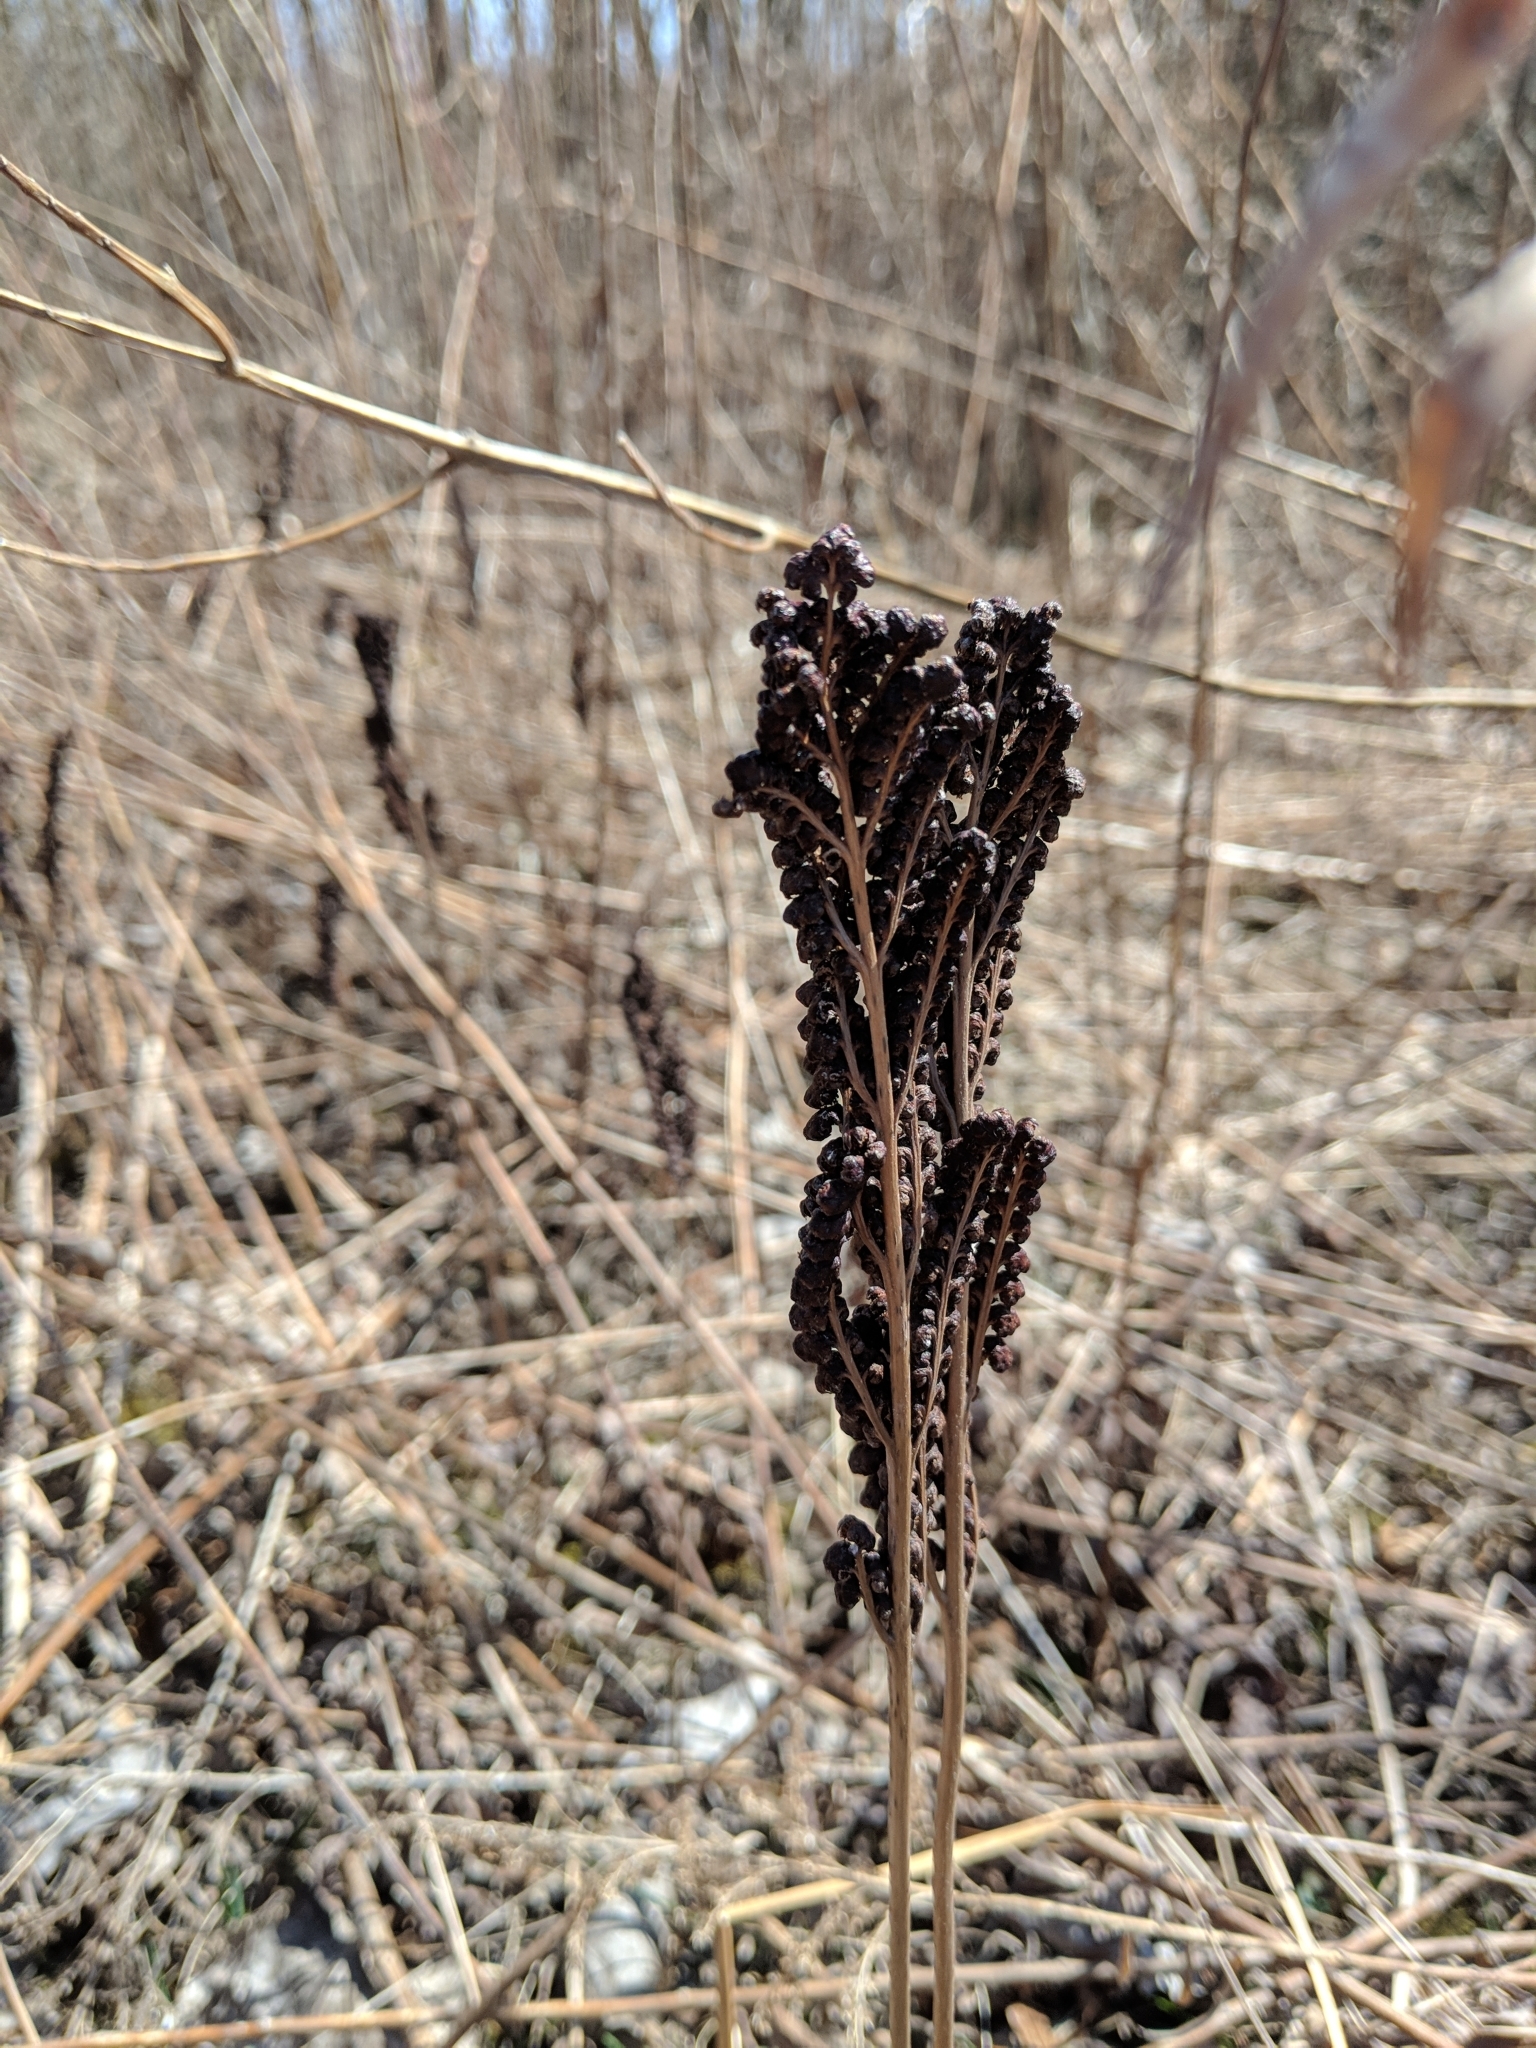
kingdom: Plantae
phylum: Tracheophyta
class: Polypodiopsida
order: Polypodiales
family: Onocleaceae
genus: Onoclea
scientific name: Onoclea sensibilis
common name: Sensitive fern
